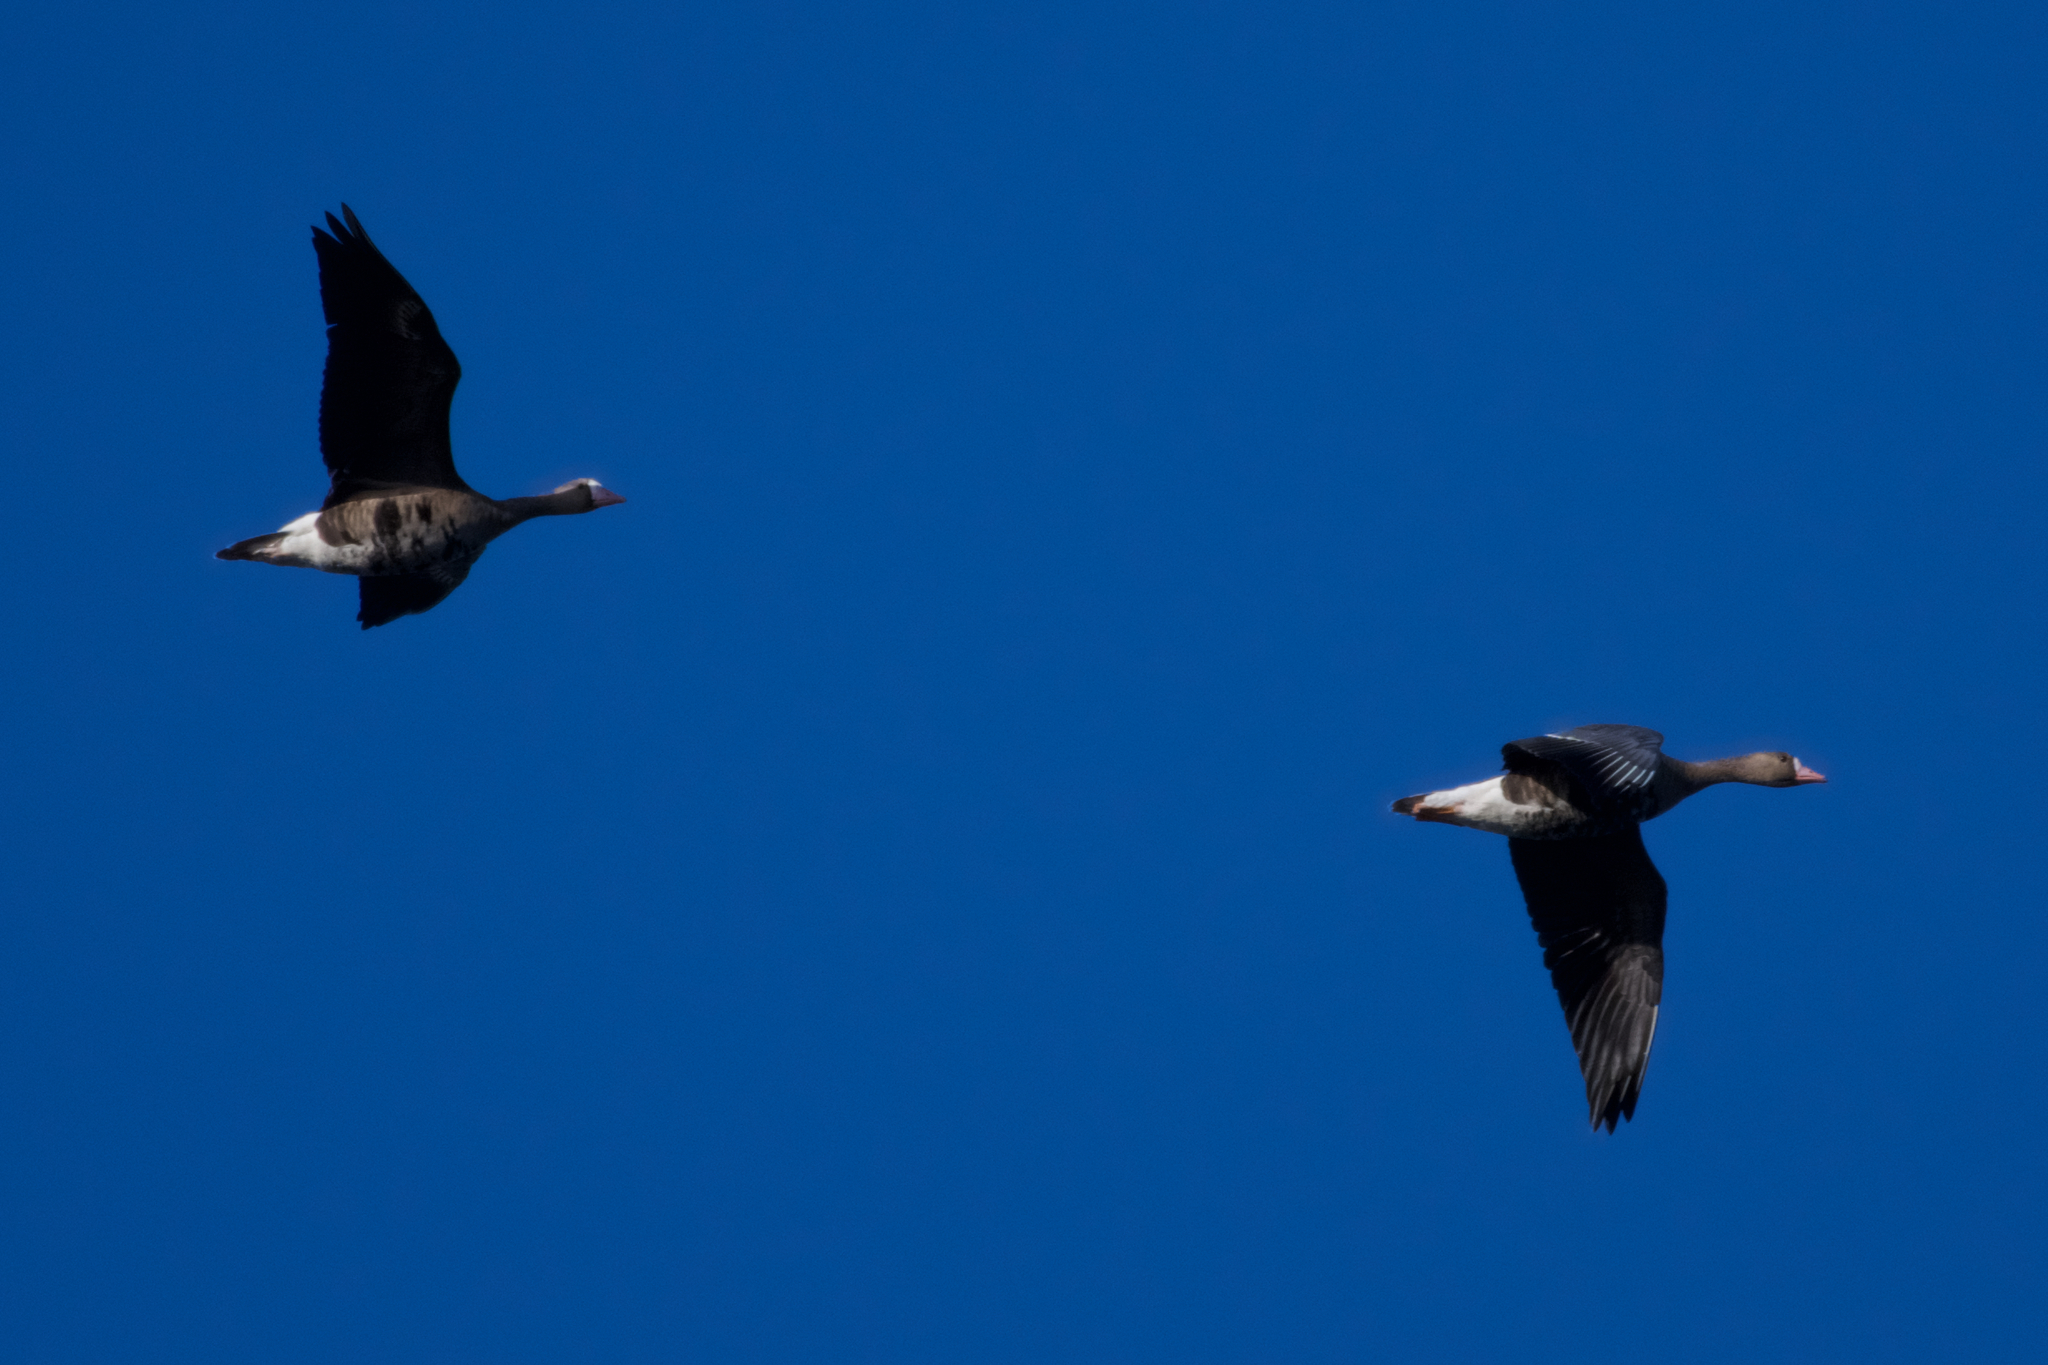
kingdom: Animalia
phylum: Chordata
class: Aves
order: Anseriformes
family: Anatidae
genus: Anser
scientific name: Anser albifrons
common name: Greater white-fronted goose
